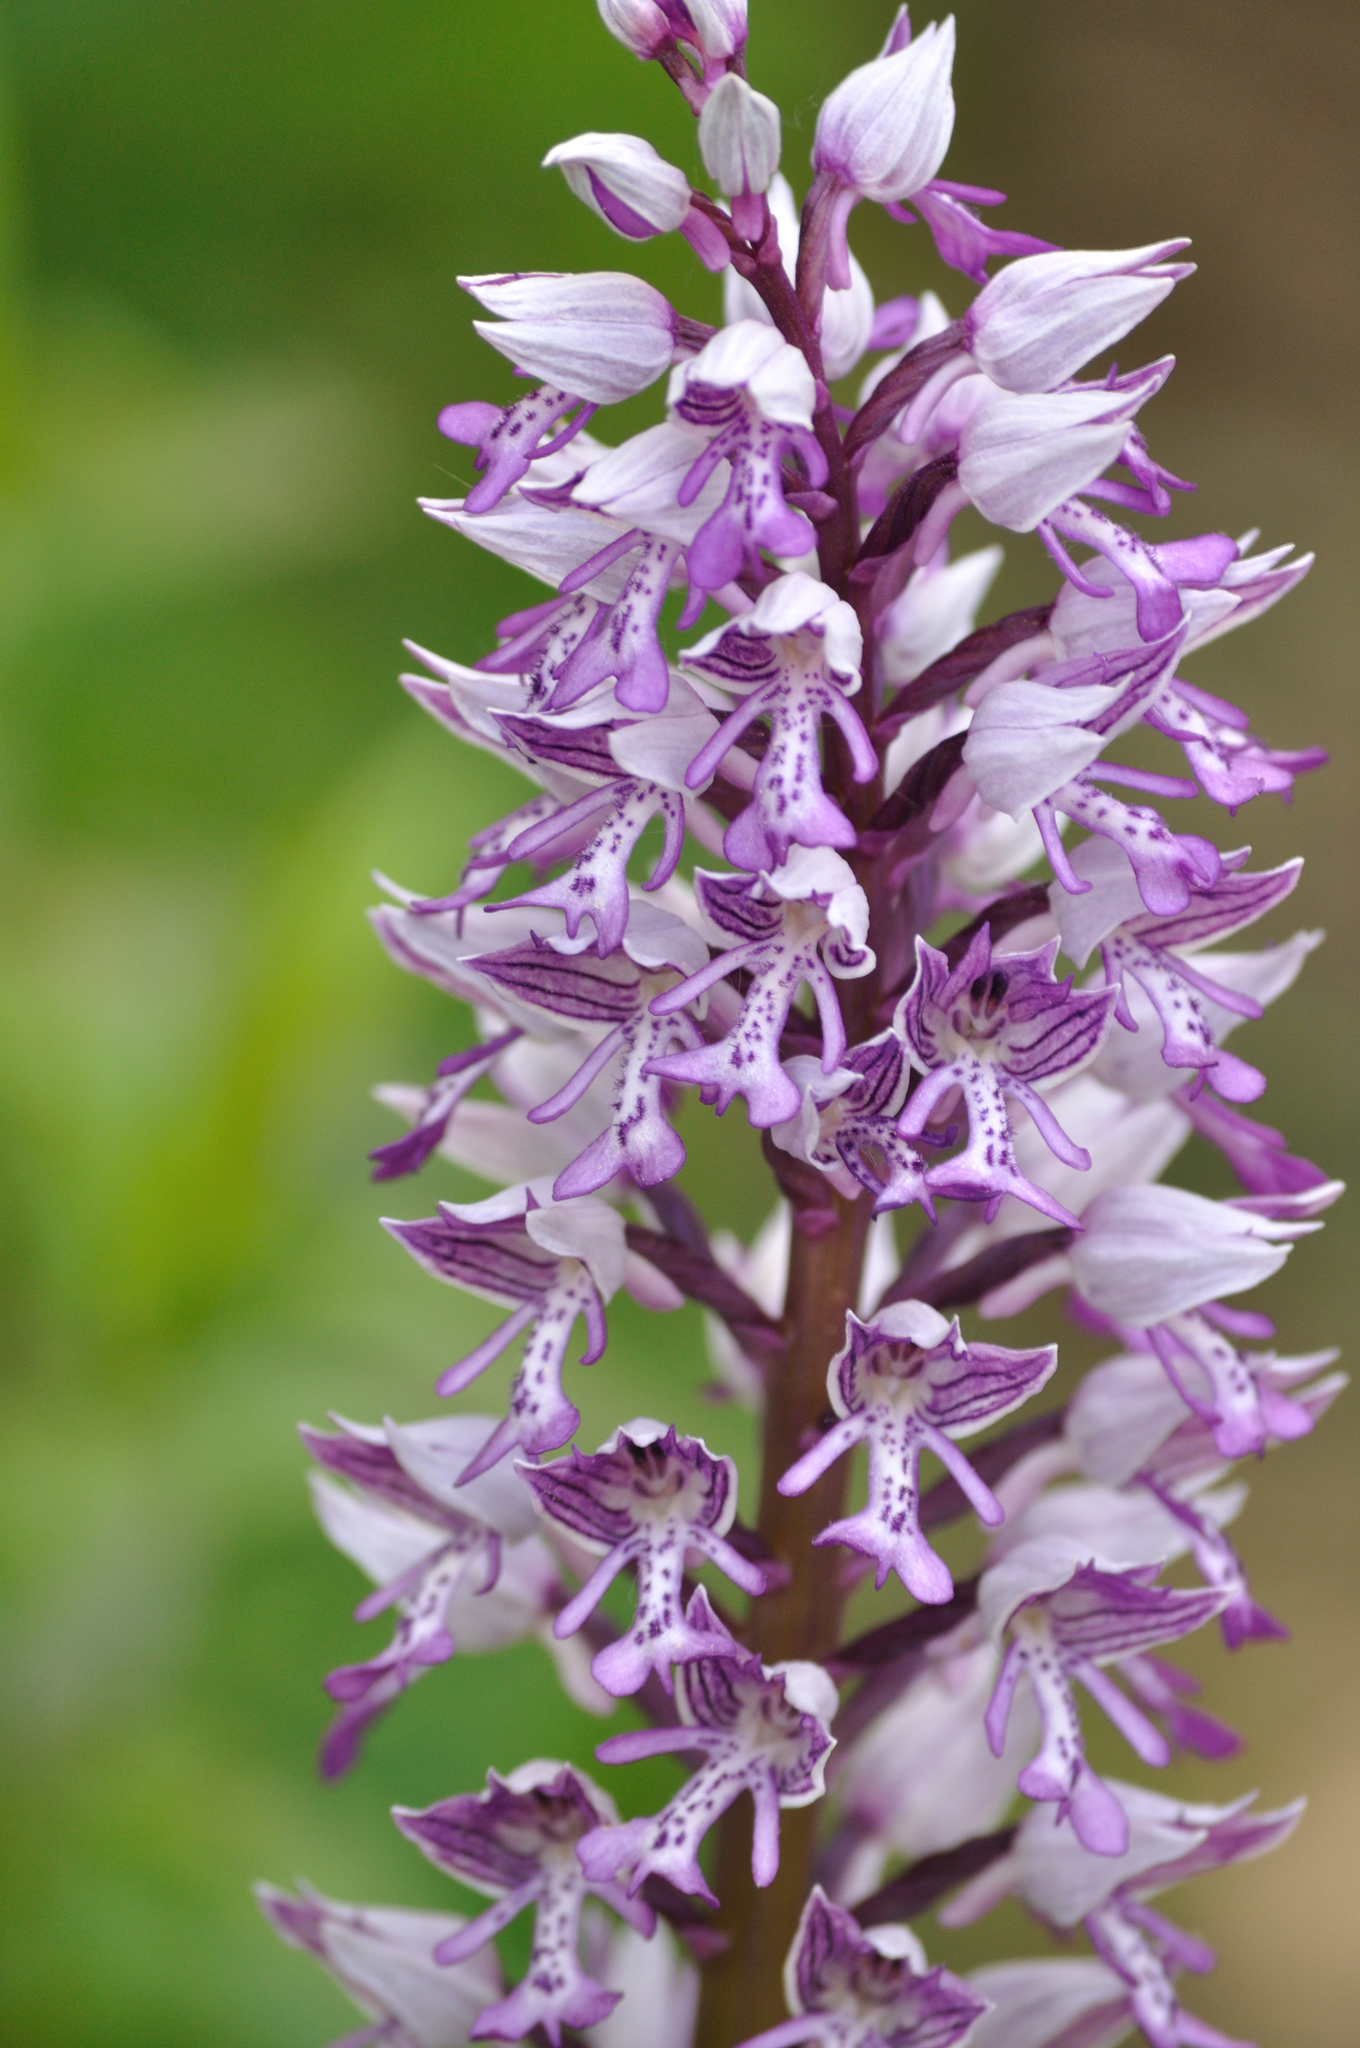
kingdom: Plantae
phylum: Tracheophyta
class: Liliopsida
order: Asparagales
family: Orchidaceae
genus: Orchis
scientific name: Orchis militaris
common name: Military orchid
